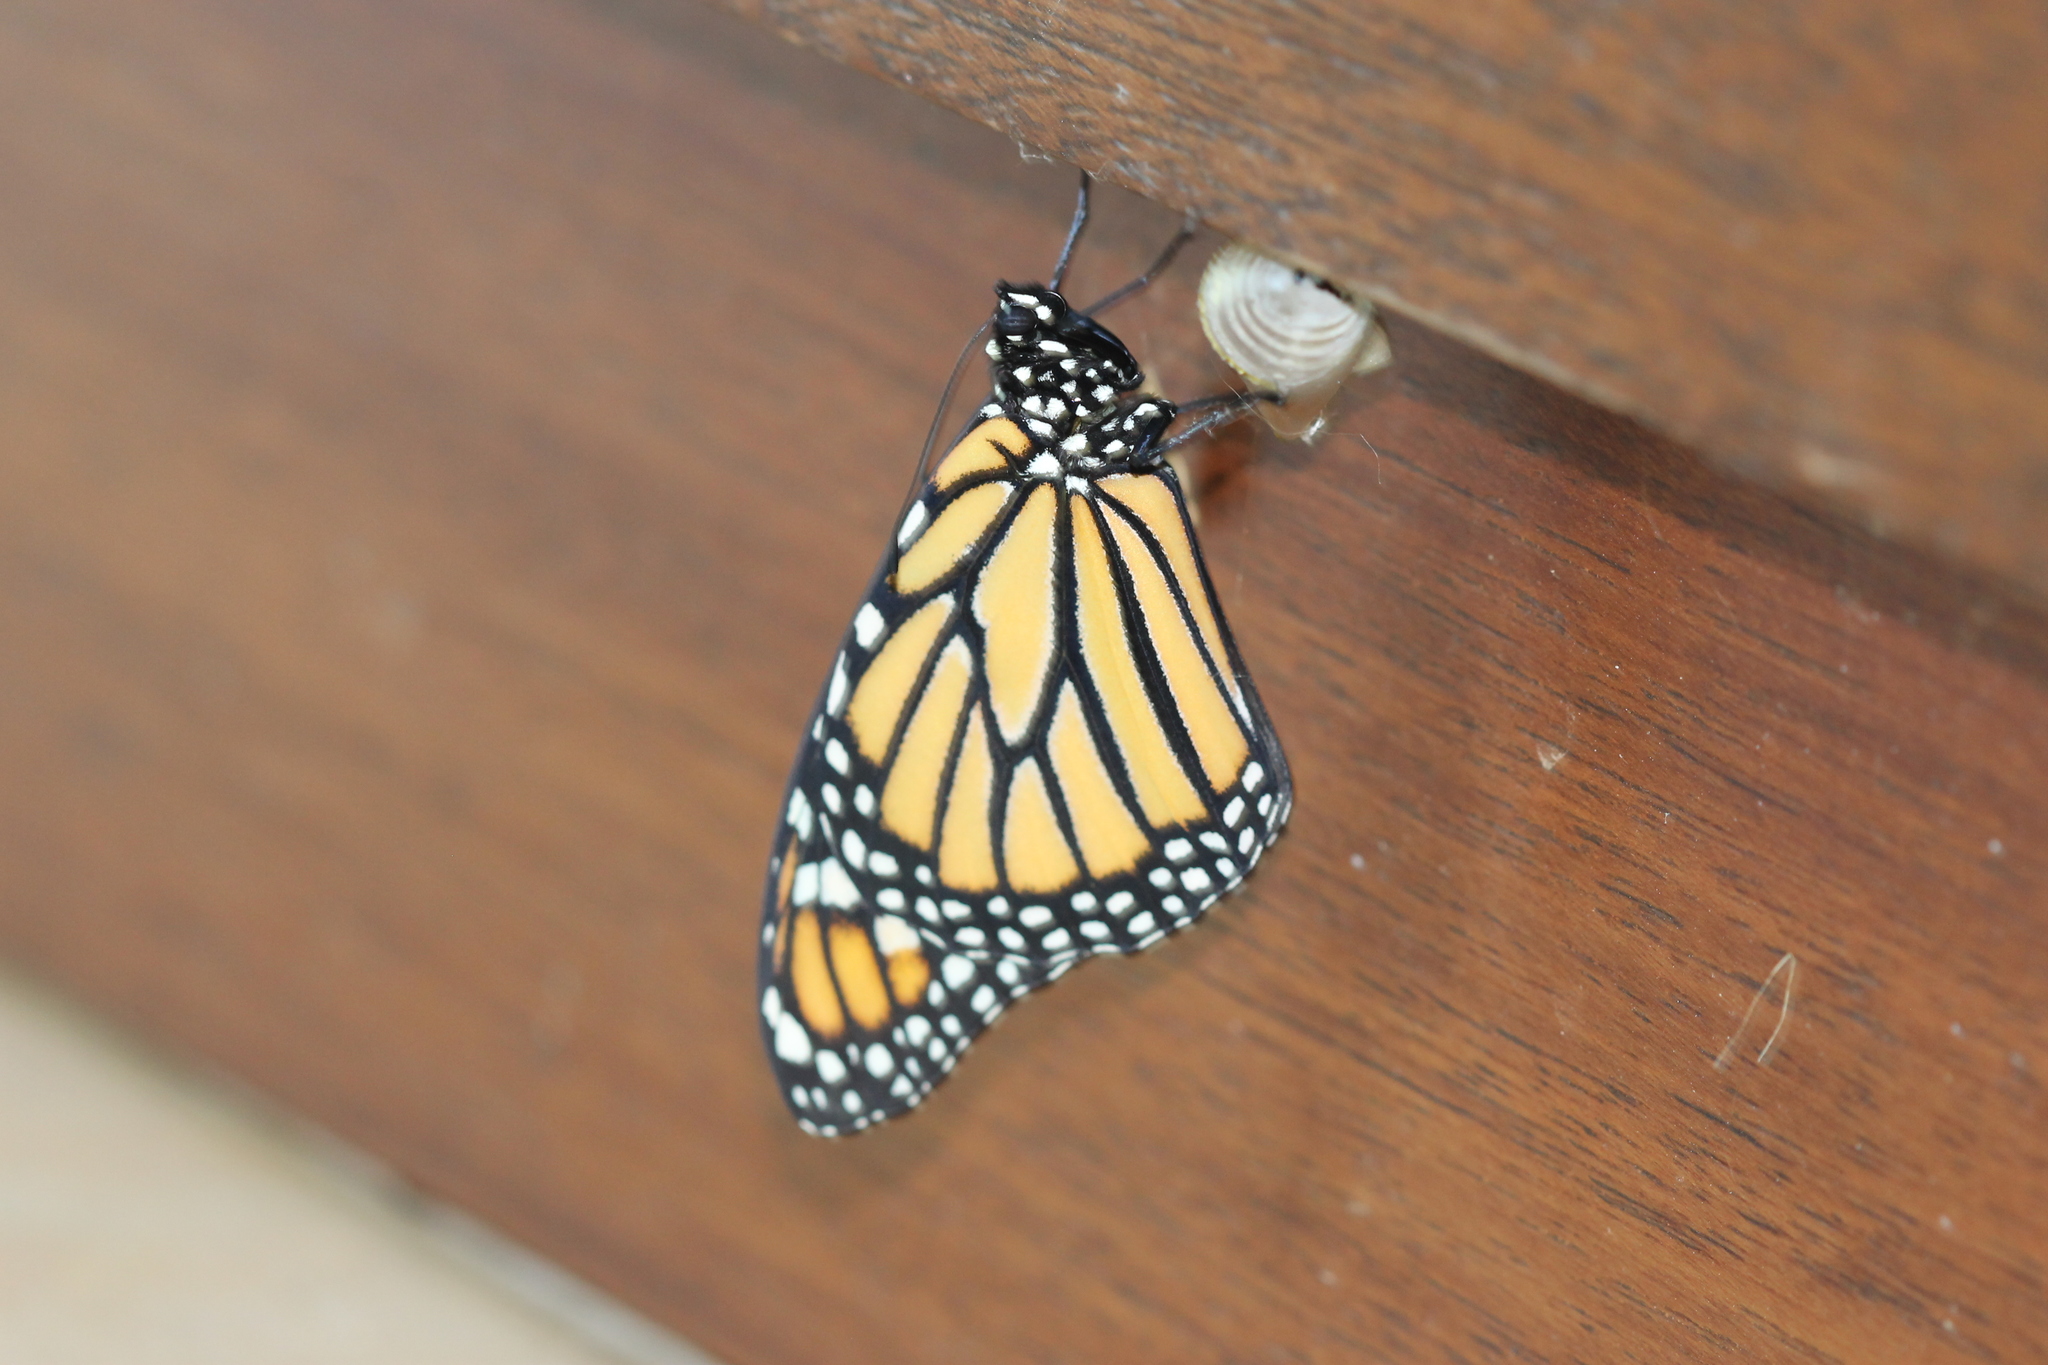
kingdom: Animalia
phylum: Arthropoda
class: Insecta
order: Lepidoptera
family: Nymphalidae
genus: Danaus
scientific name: Danaus plexippus
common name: Monarch
